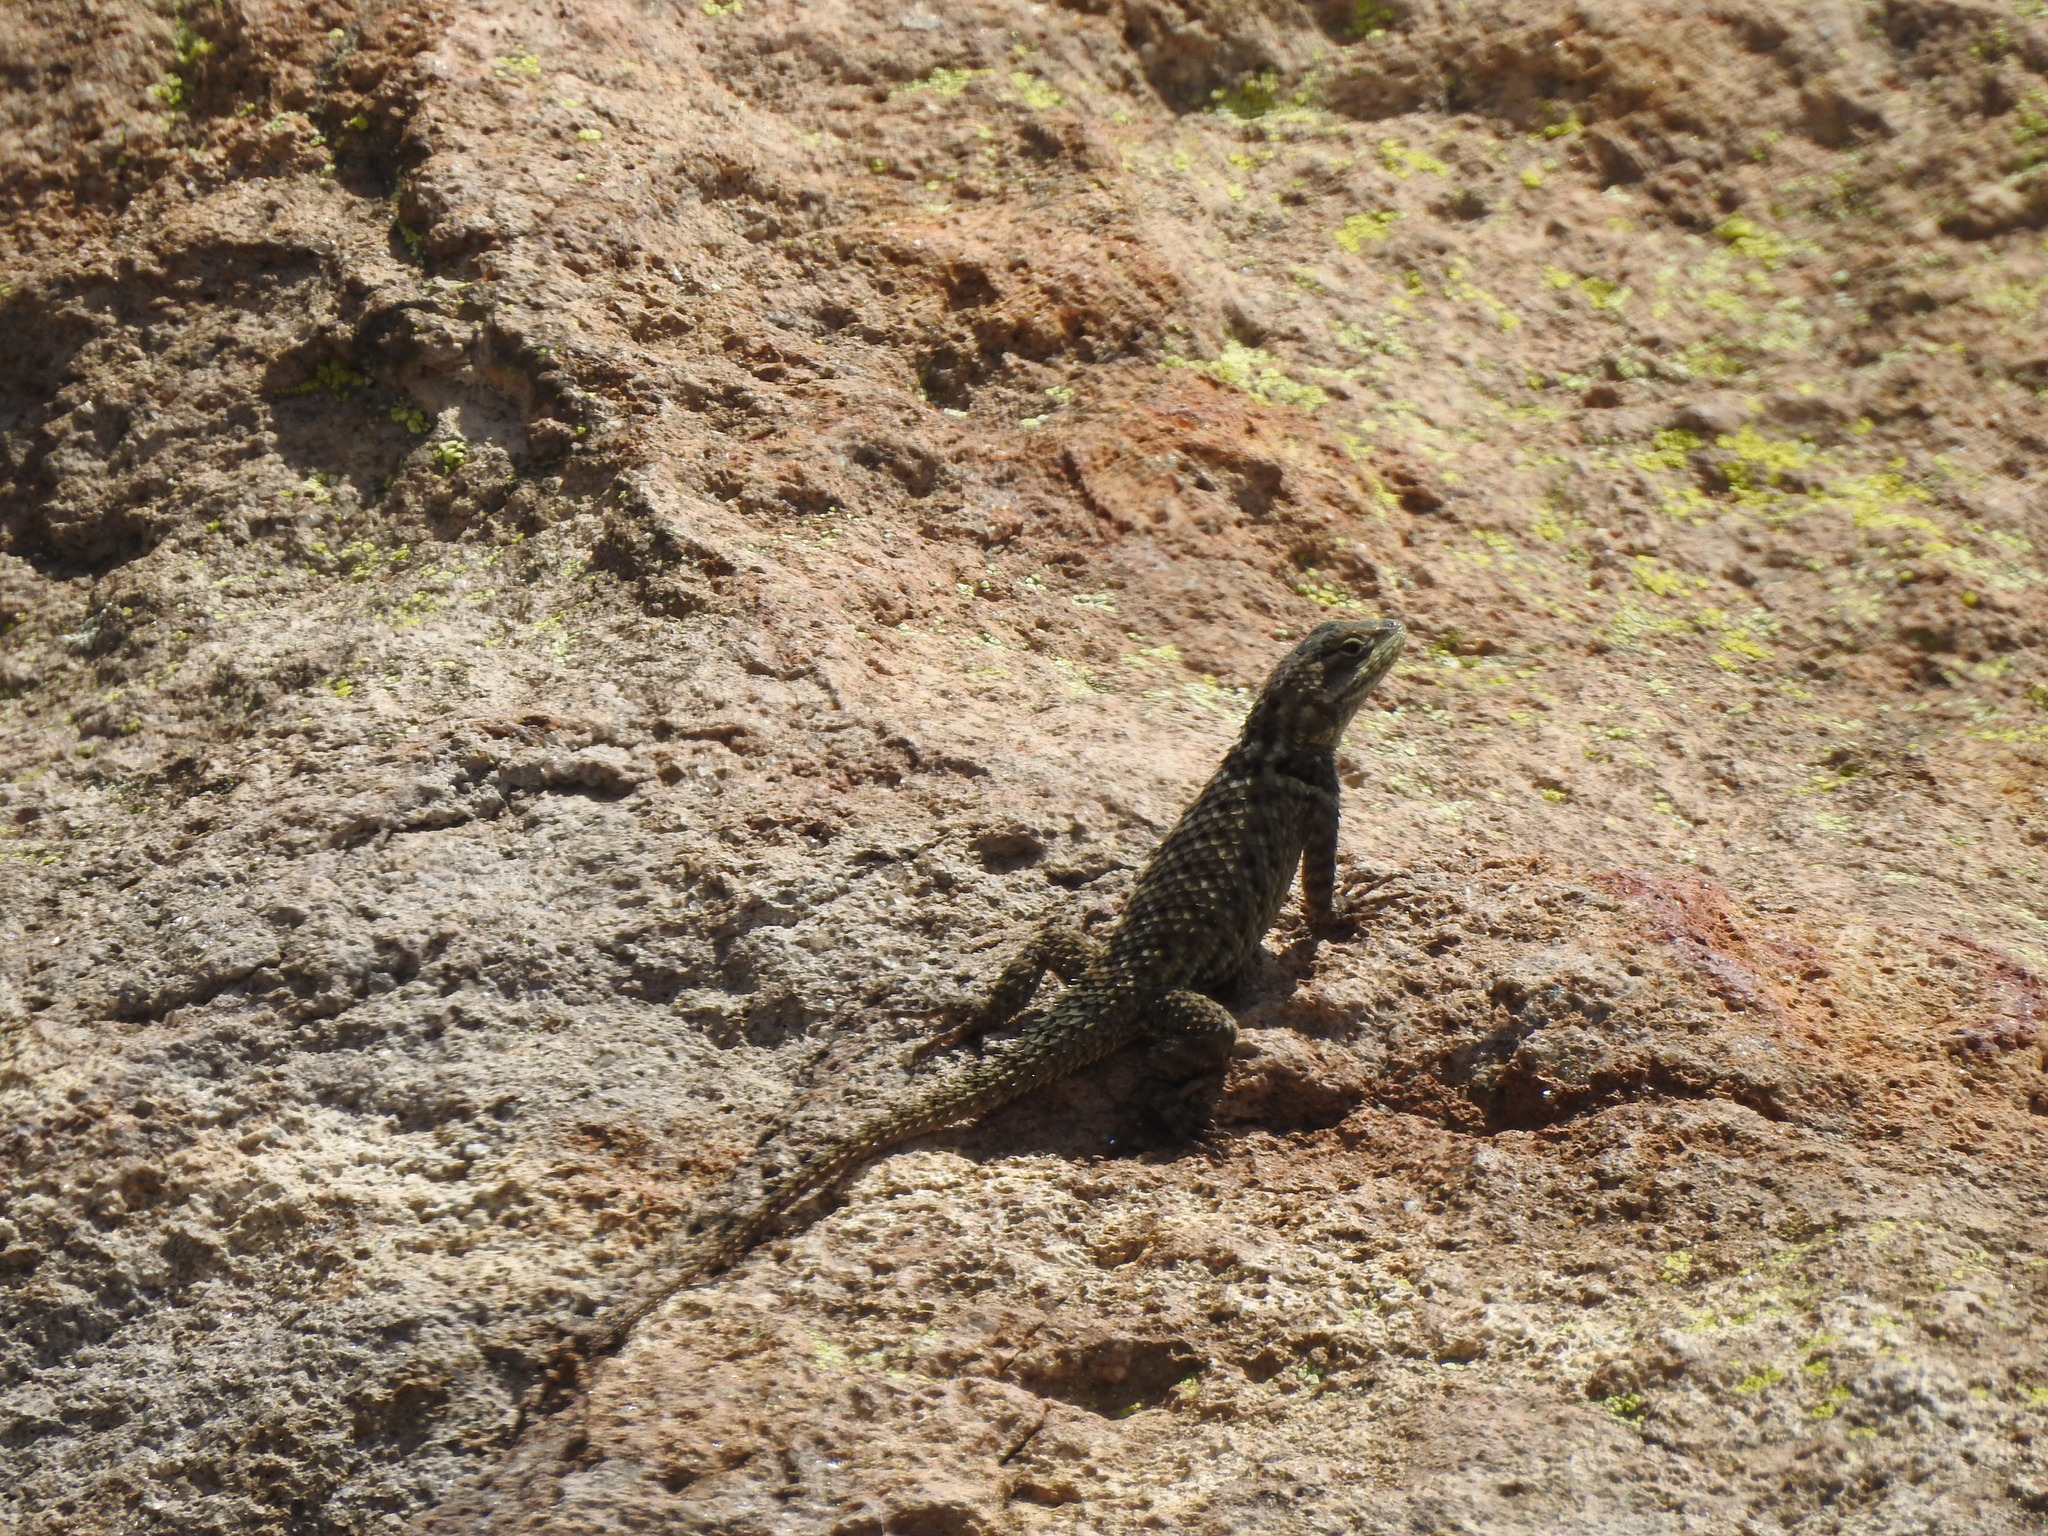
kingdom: Animalia
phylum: Chordata
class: Squamata
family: Phrynosomatidae
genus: Sceloporus
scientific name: Sceloporus torquatus
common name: Central plateau torquate lizard [melanogaster]
